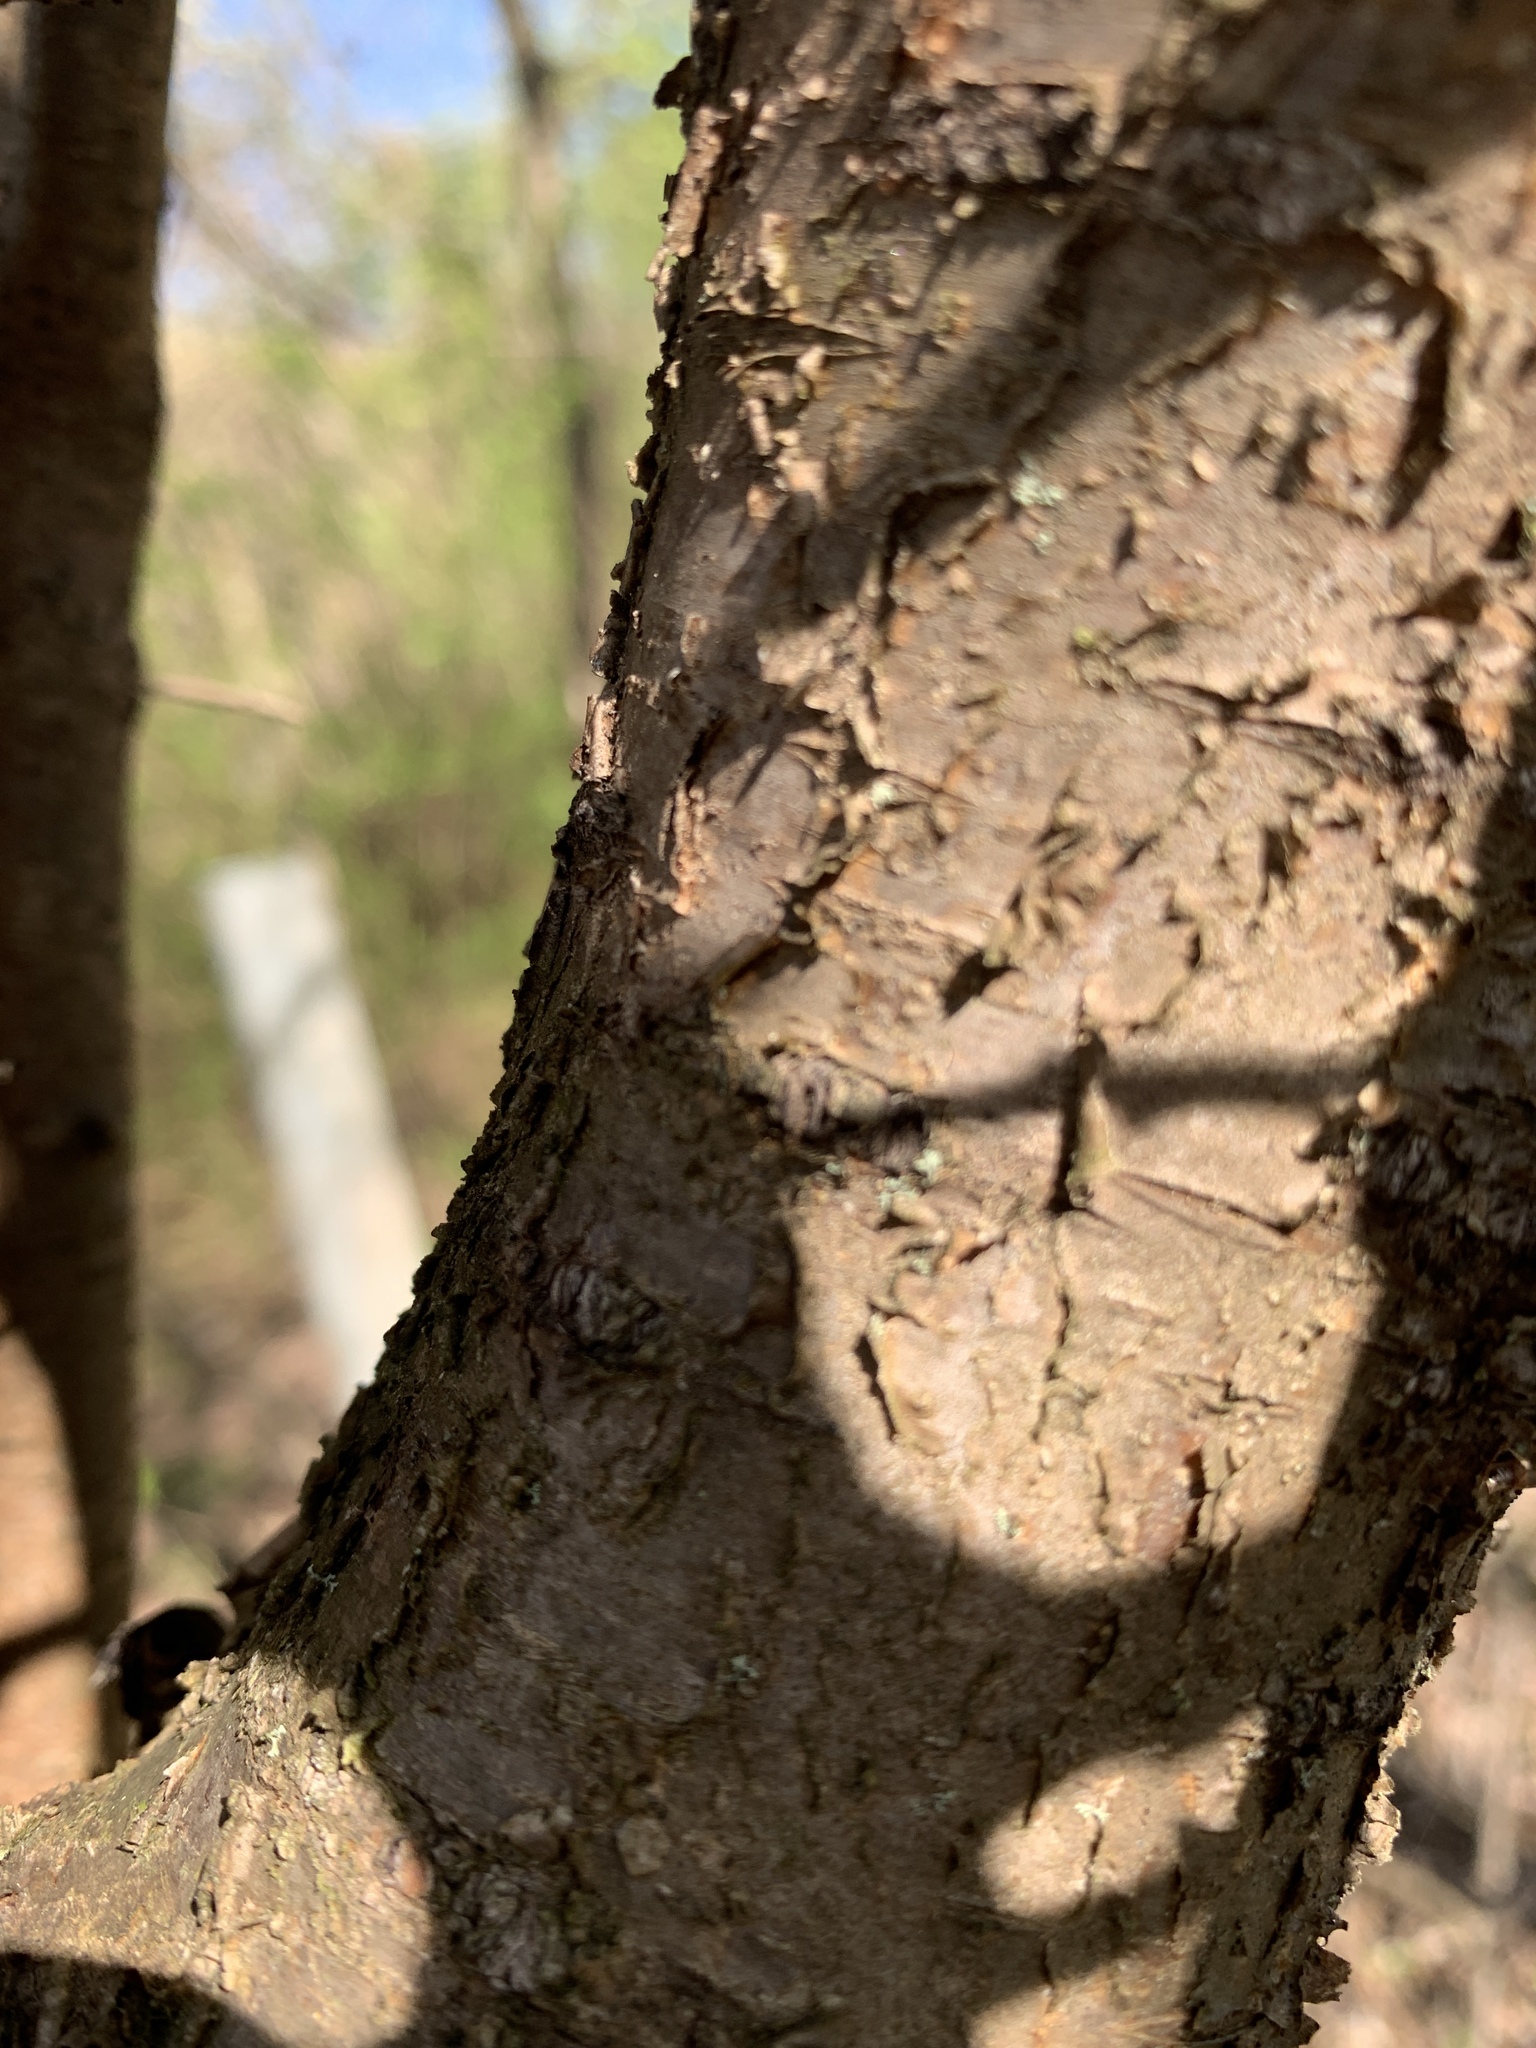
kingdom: Plantae
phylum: Tracheophyta
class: Magnoliopsida
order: Rosales
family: Rhamnaceae
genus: Rhamnus
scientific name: Rhamnus cathartica
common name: Common buckthorn
